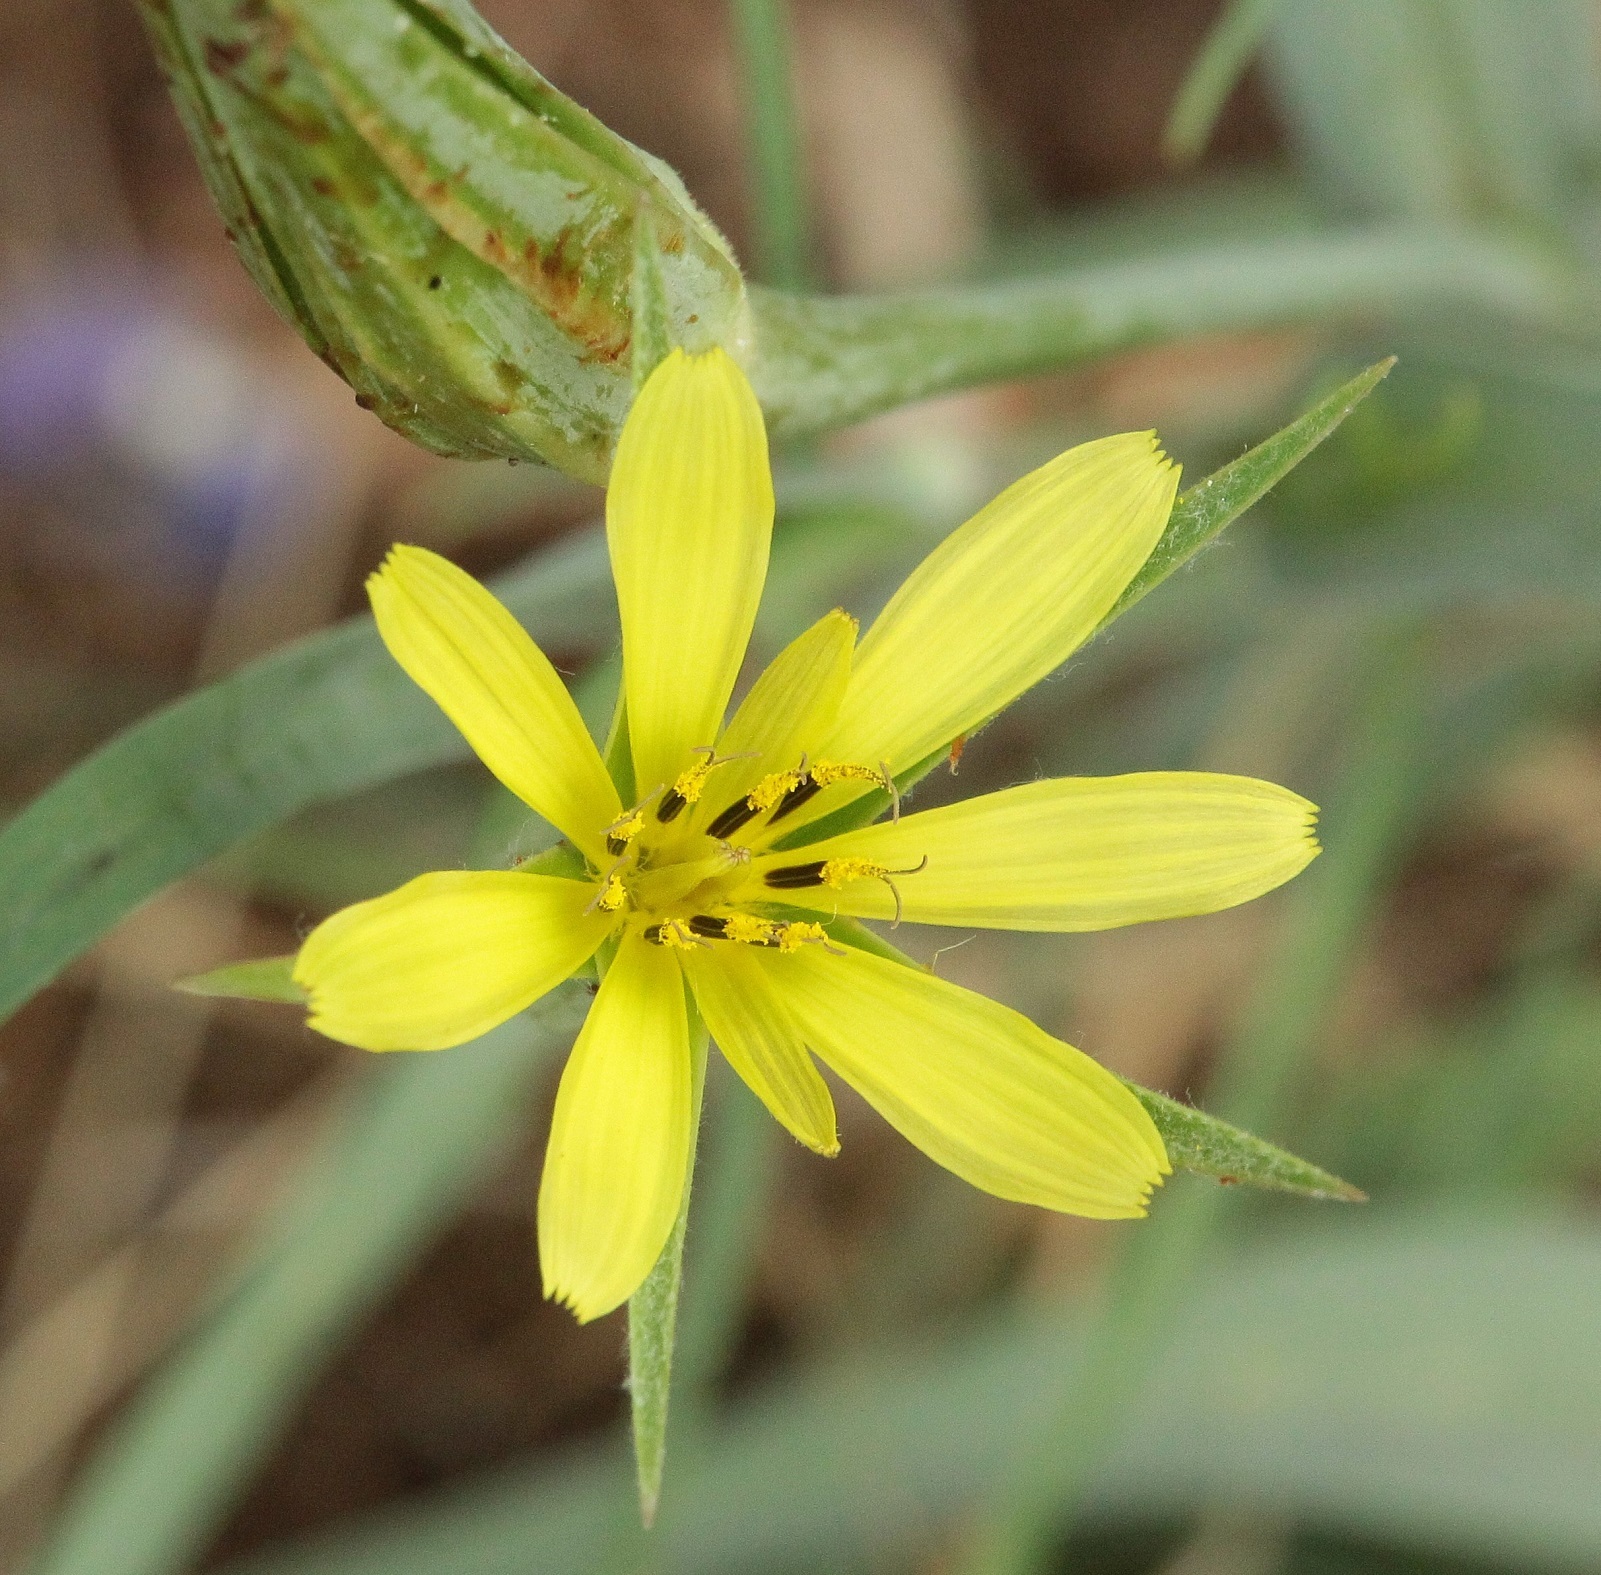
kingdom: Plantae
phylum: Tracheophyta
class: Magnoliopsida
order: Asterales
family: Asteraceae
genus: Tragopogon
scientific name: Tragopogon dubius
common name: Yellow salsify
